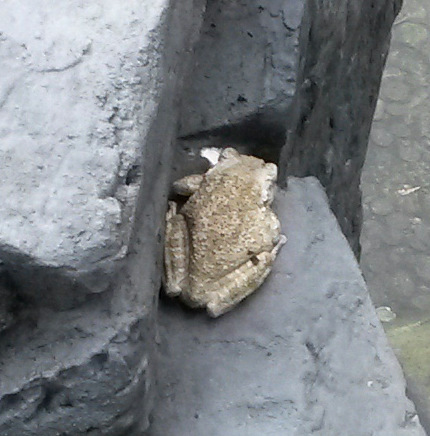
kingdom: Animalia
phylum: Chordata
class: Amphibia
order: Anura
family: Hylidae
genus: Osteopilus
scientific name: Osteopilus septentrionalis
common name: Cuban treefrog
